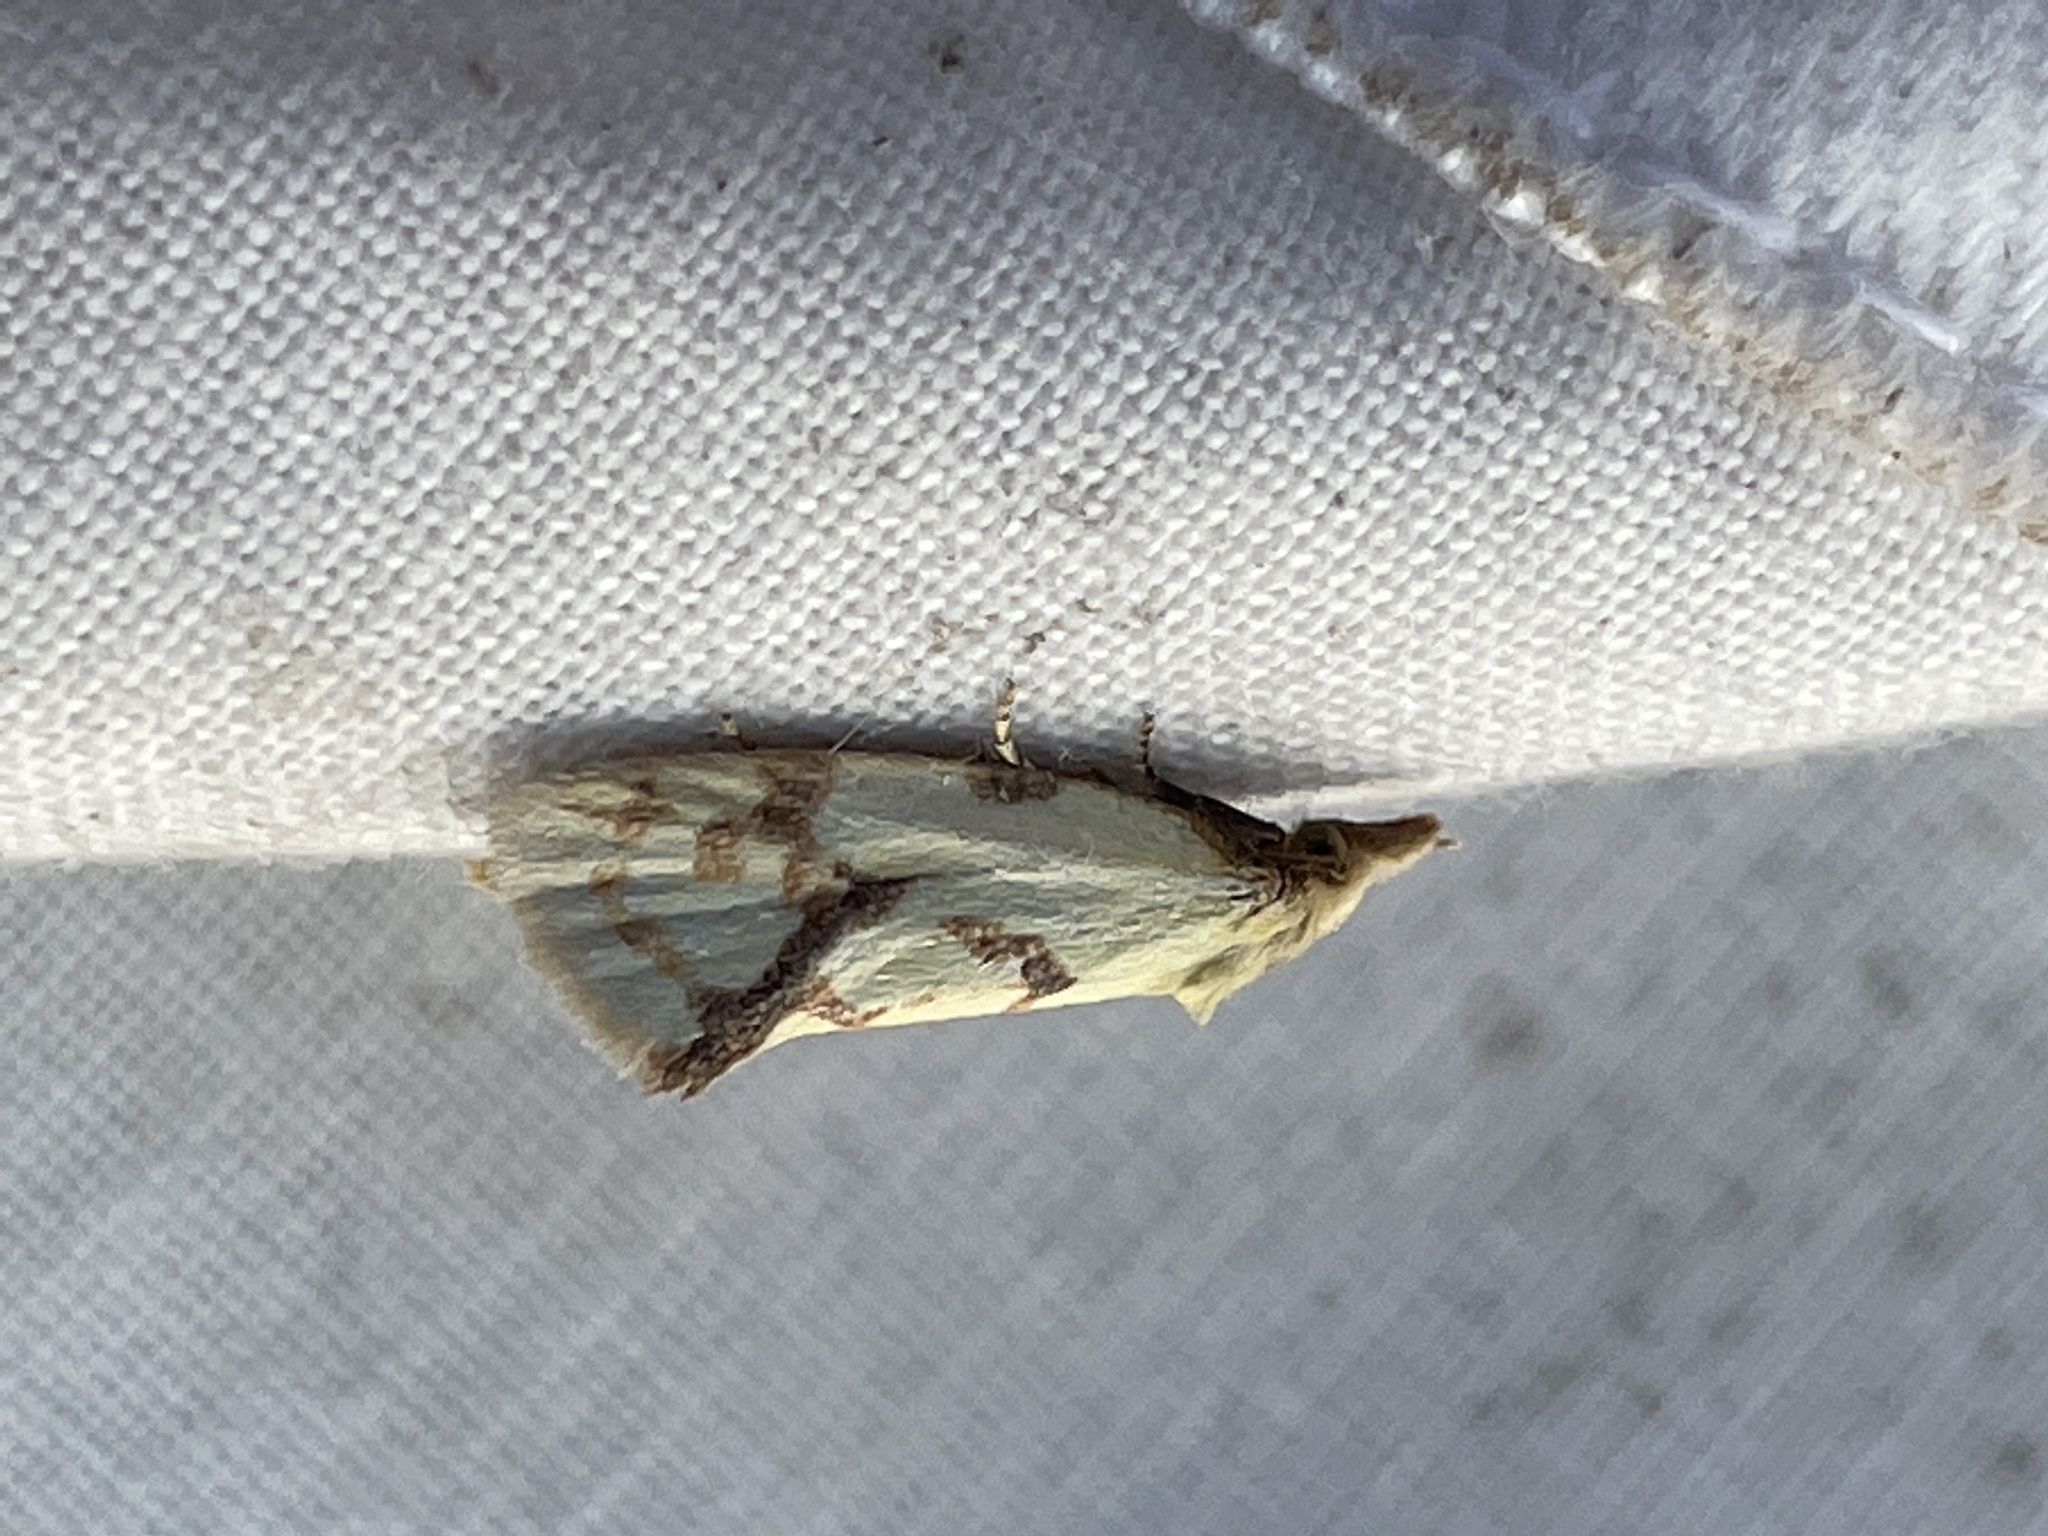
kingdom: Animalia
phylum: Arthropoda
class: Insecta
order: Lepidoptera
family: Tortricidae
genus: Agapeta
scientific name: Agapeta hamana
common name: Common yellow conch
